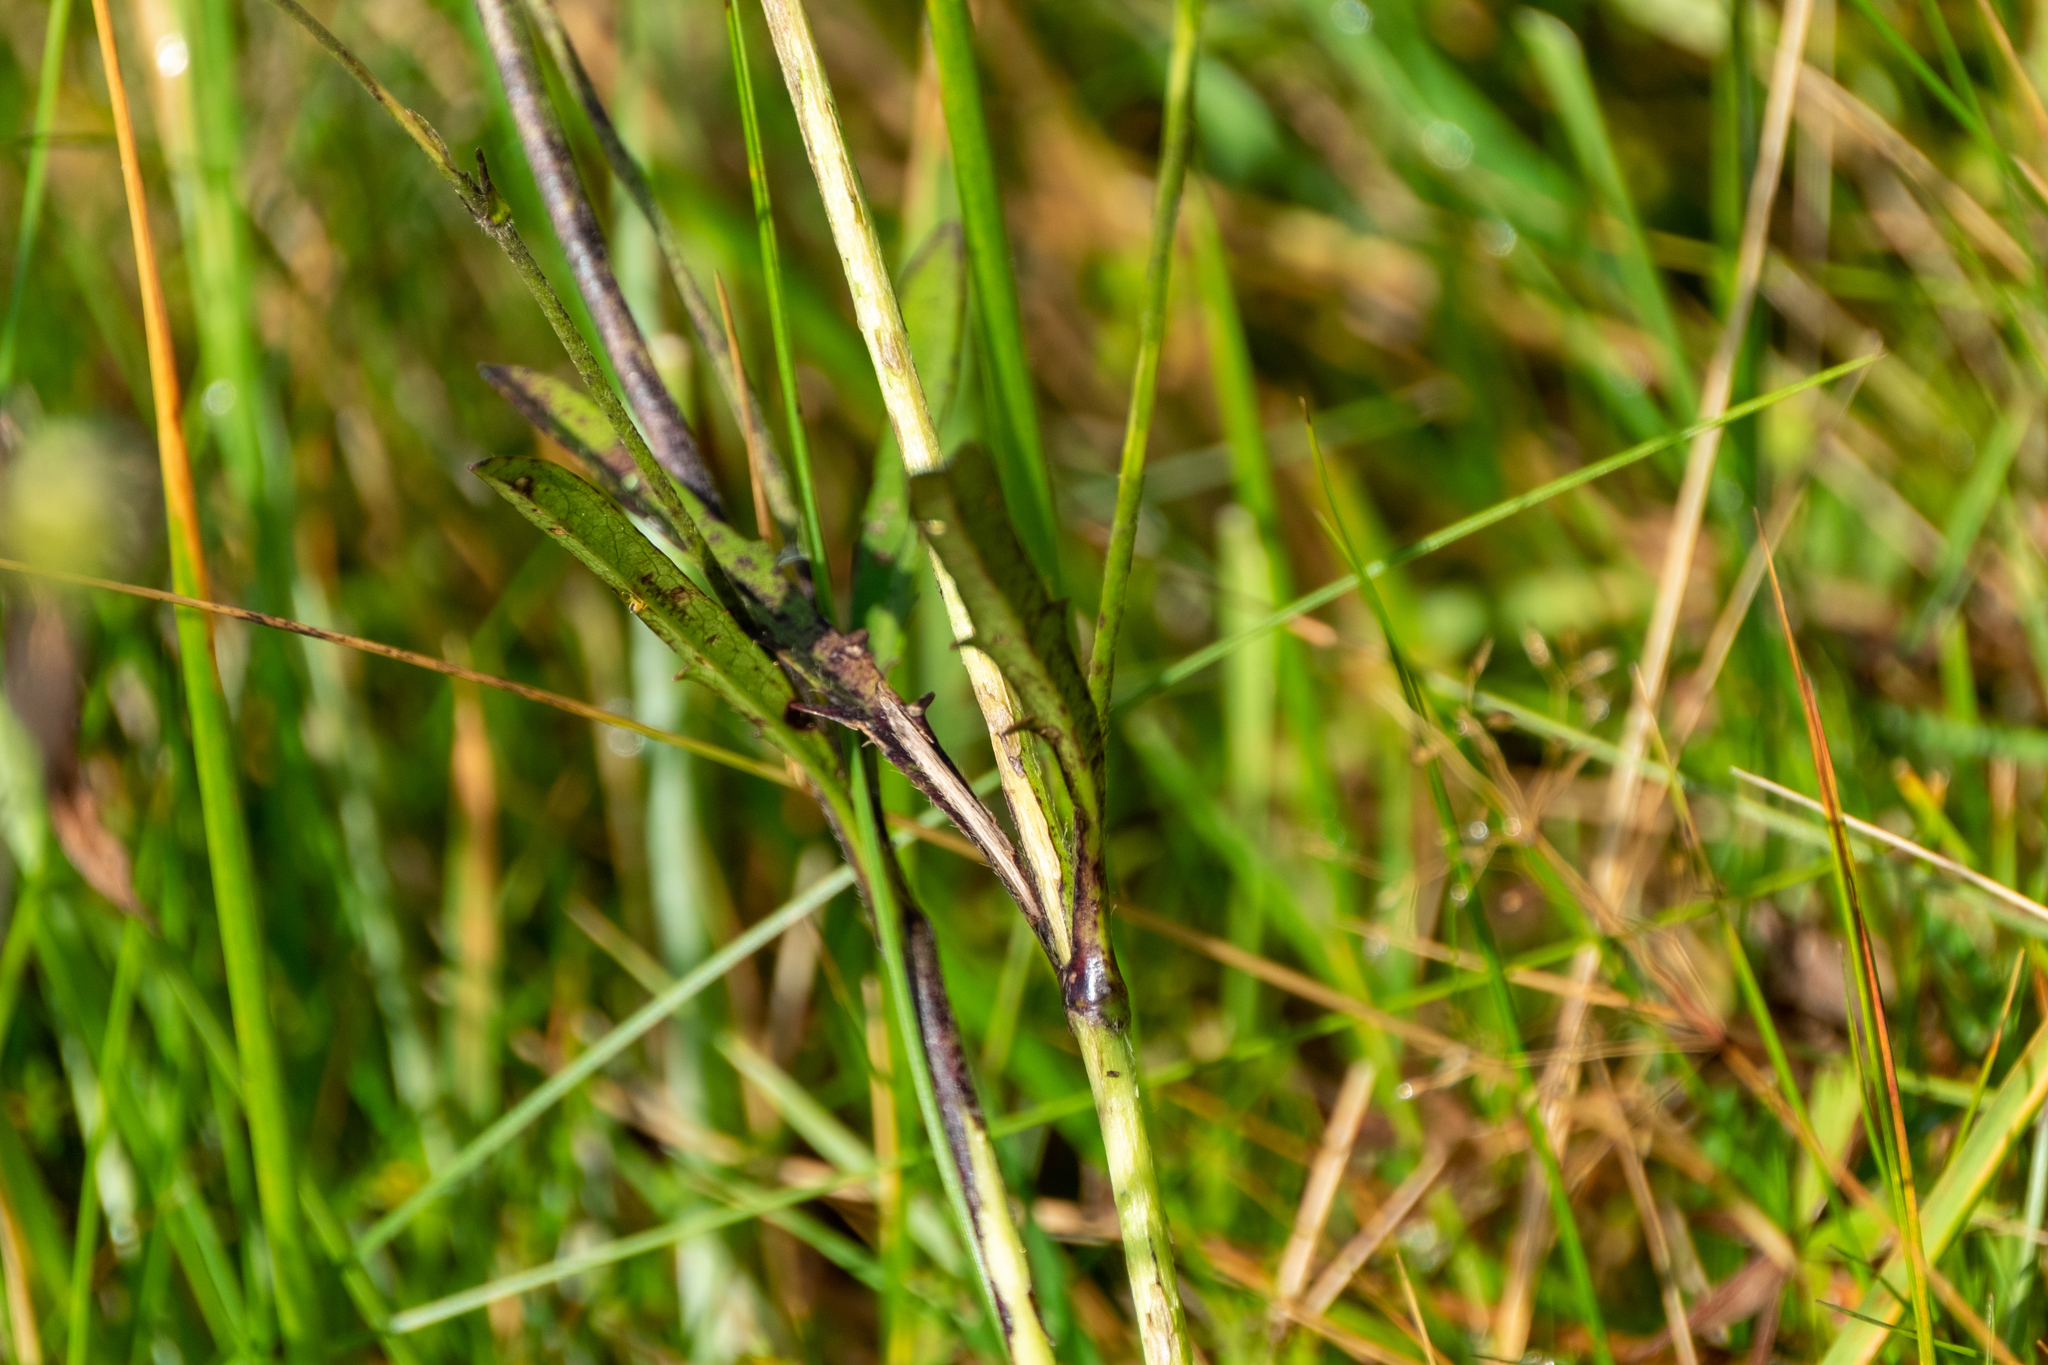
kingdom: Plantae
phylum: Tracheophyta
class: Magnoliopsida
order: Dipsacales
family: Caprifoliaceae
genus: Succisa
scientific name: Succisa pratensis
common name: Devil's-bit
